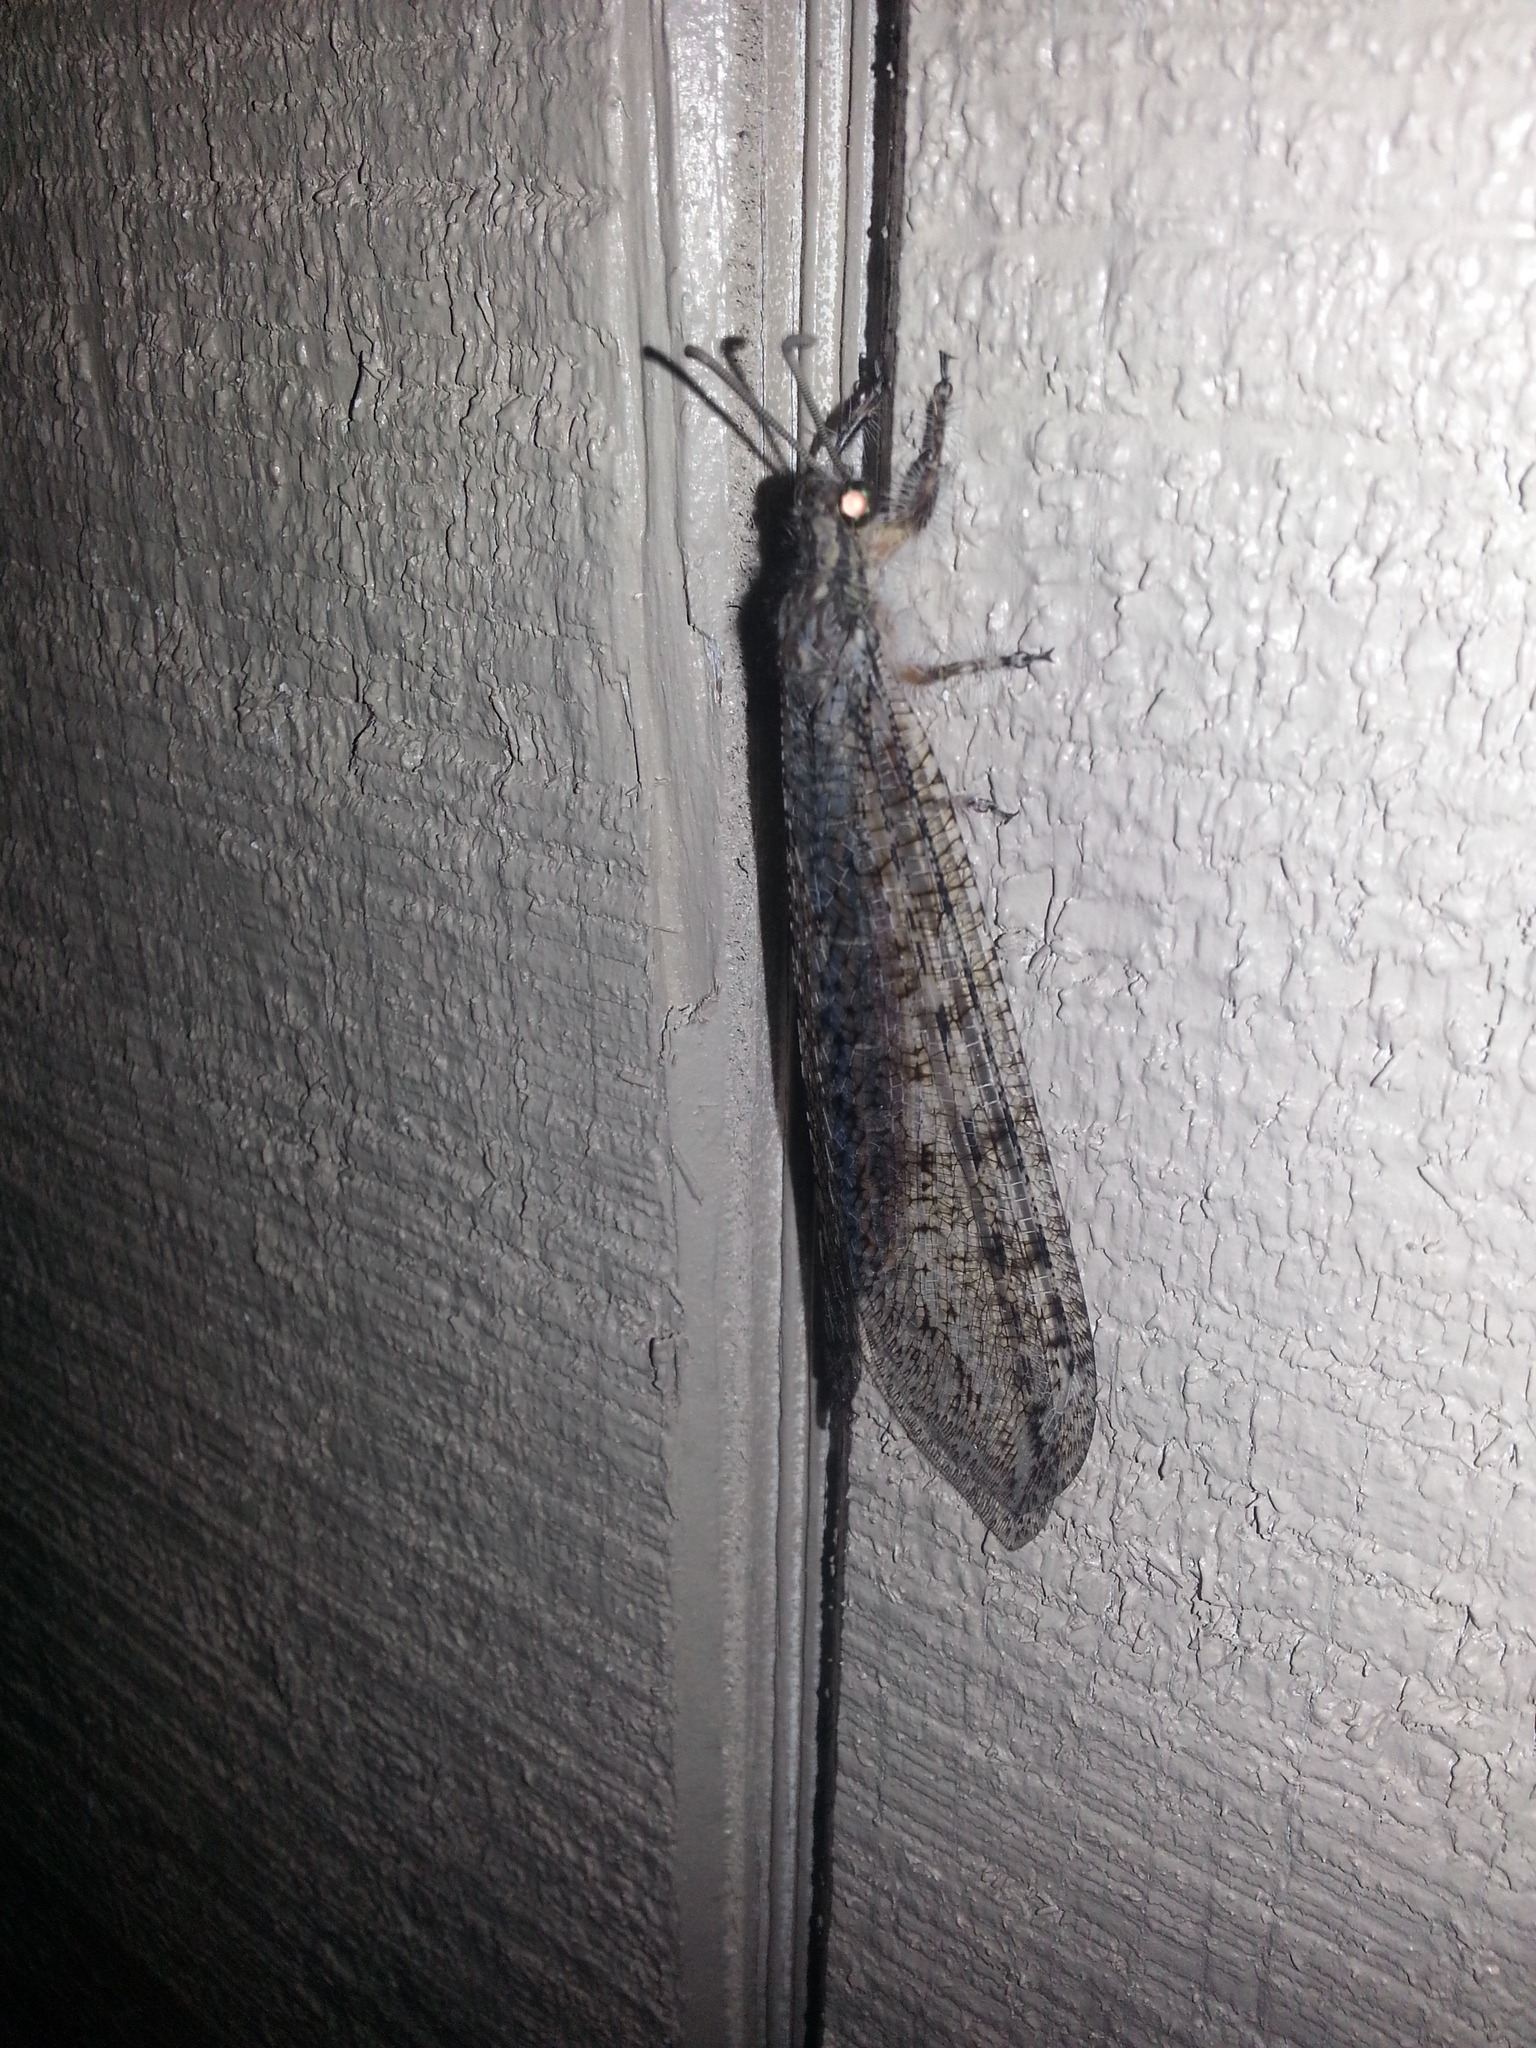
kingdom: Animalia
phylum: Arthropoda
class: Insecta
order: Neuroptera
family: Myrmeleontidae
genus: Vella
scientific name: Vella fallax
